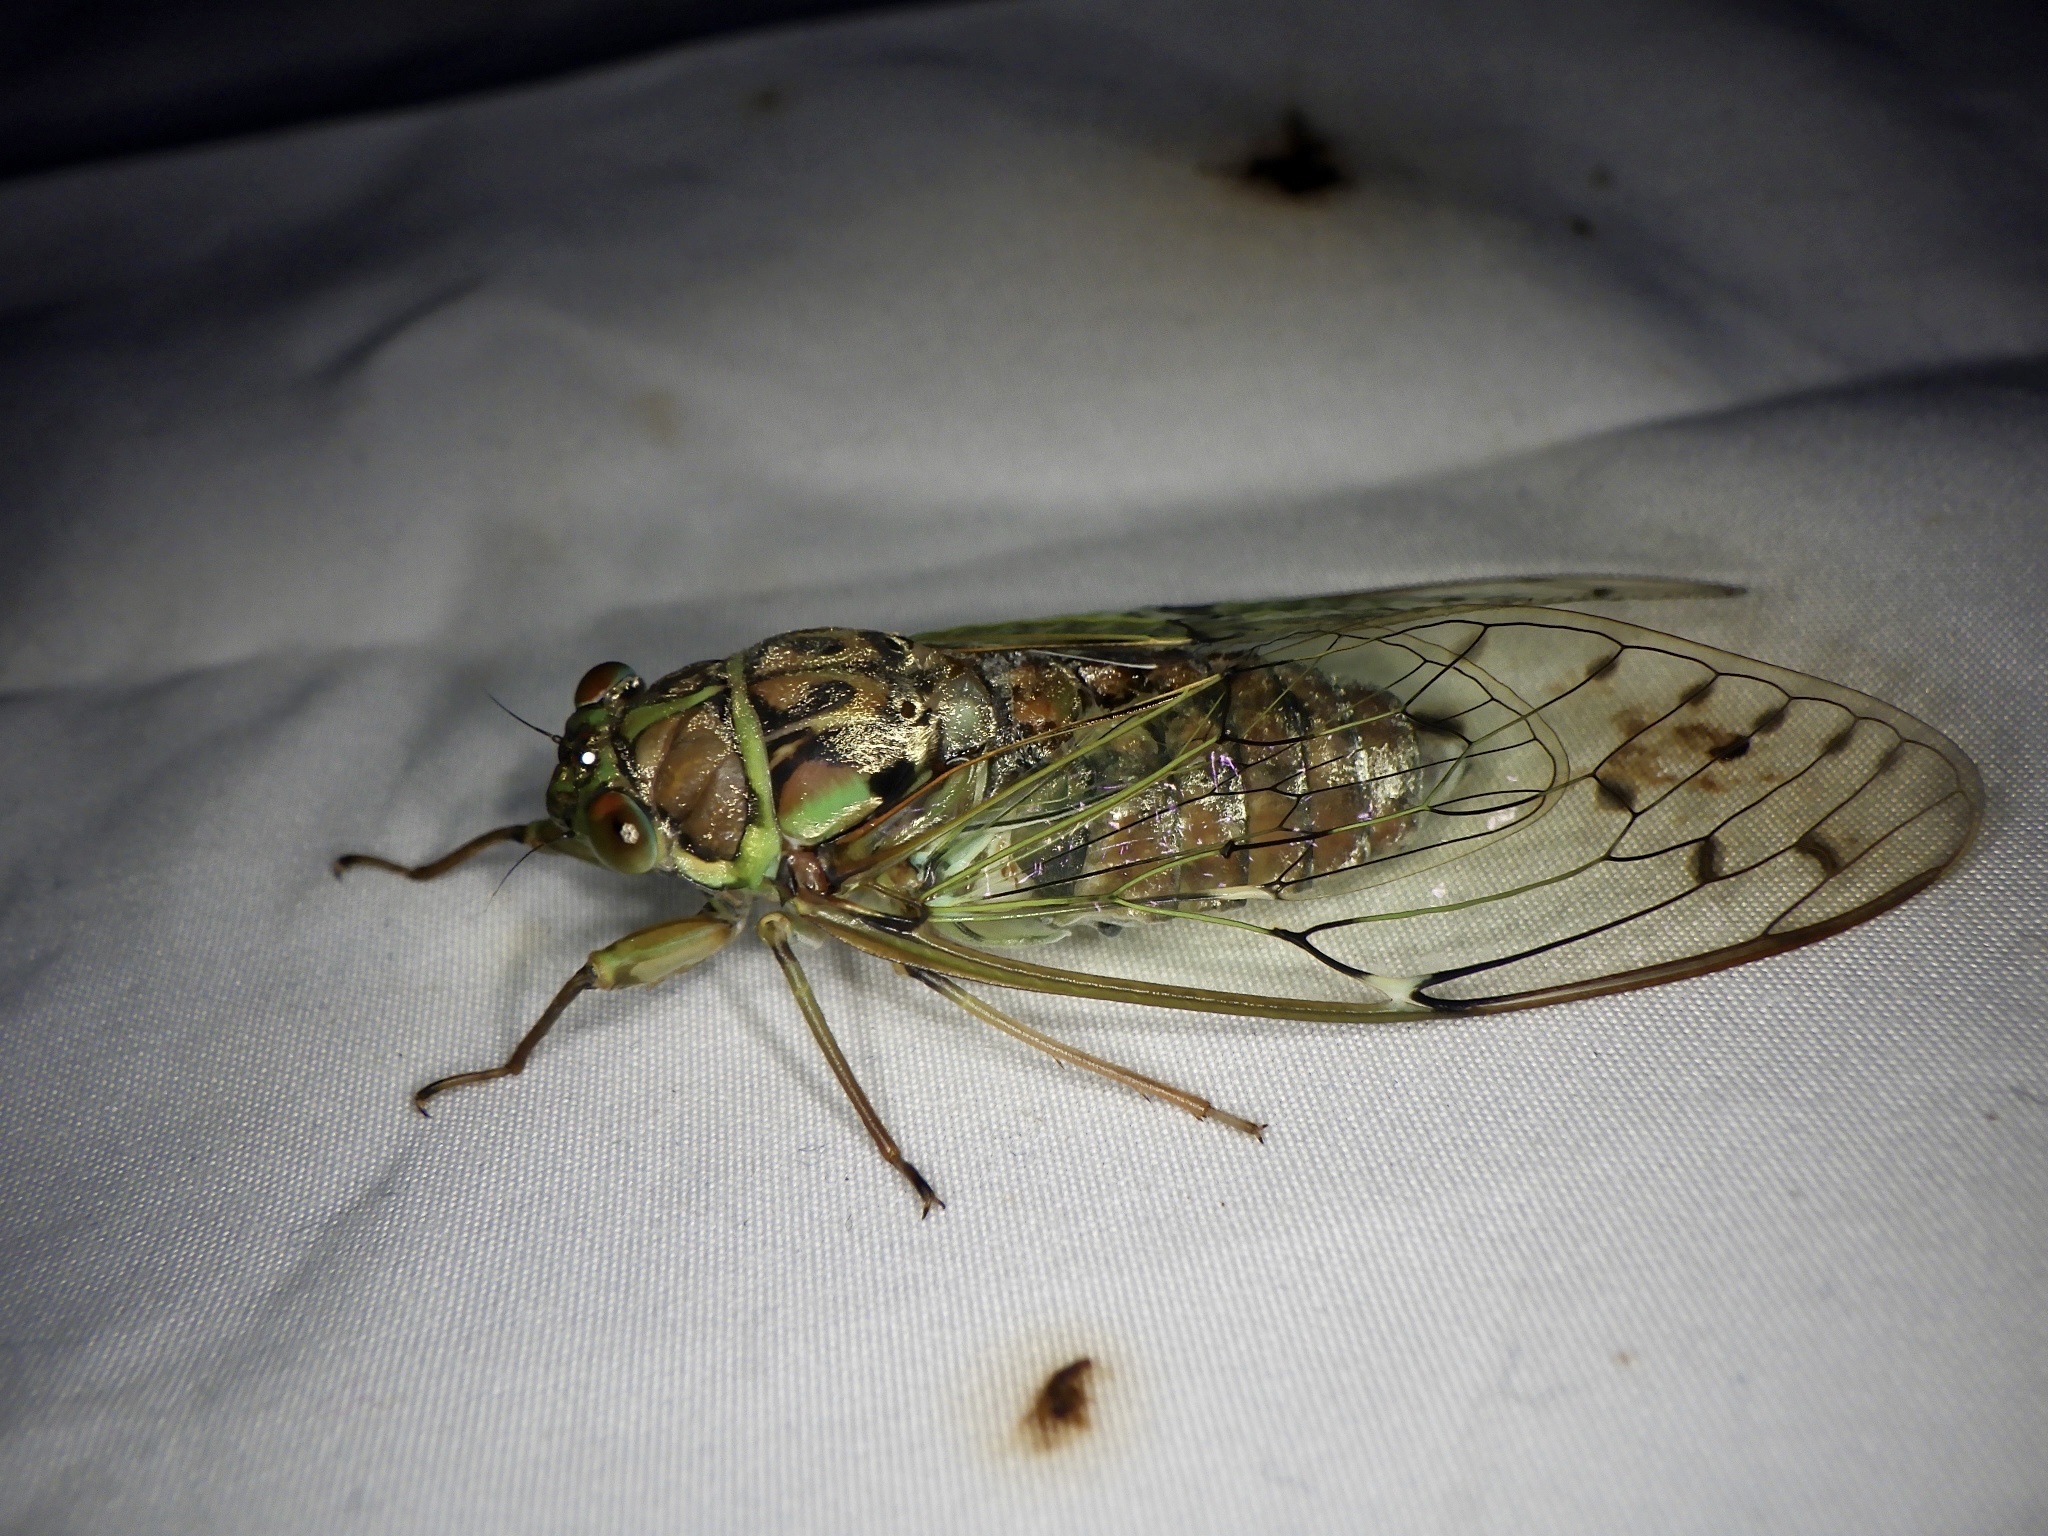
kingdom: Animalia
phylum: Arthropoda
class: Insecta
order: Hemiptera
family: Cicadidae
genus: Tanna
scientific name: Tanna japonensis
